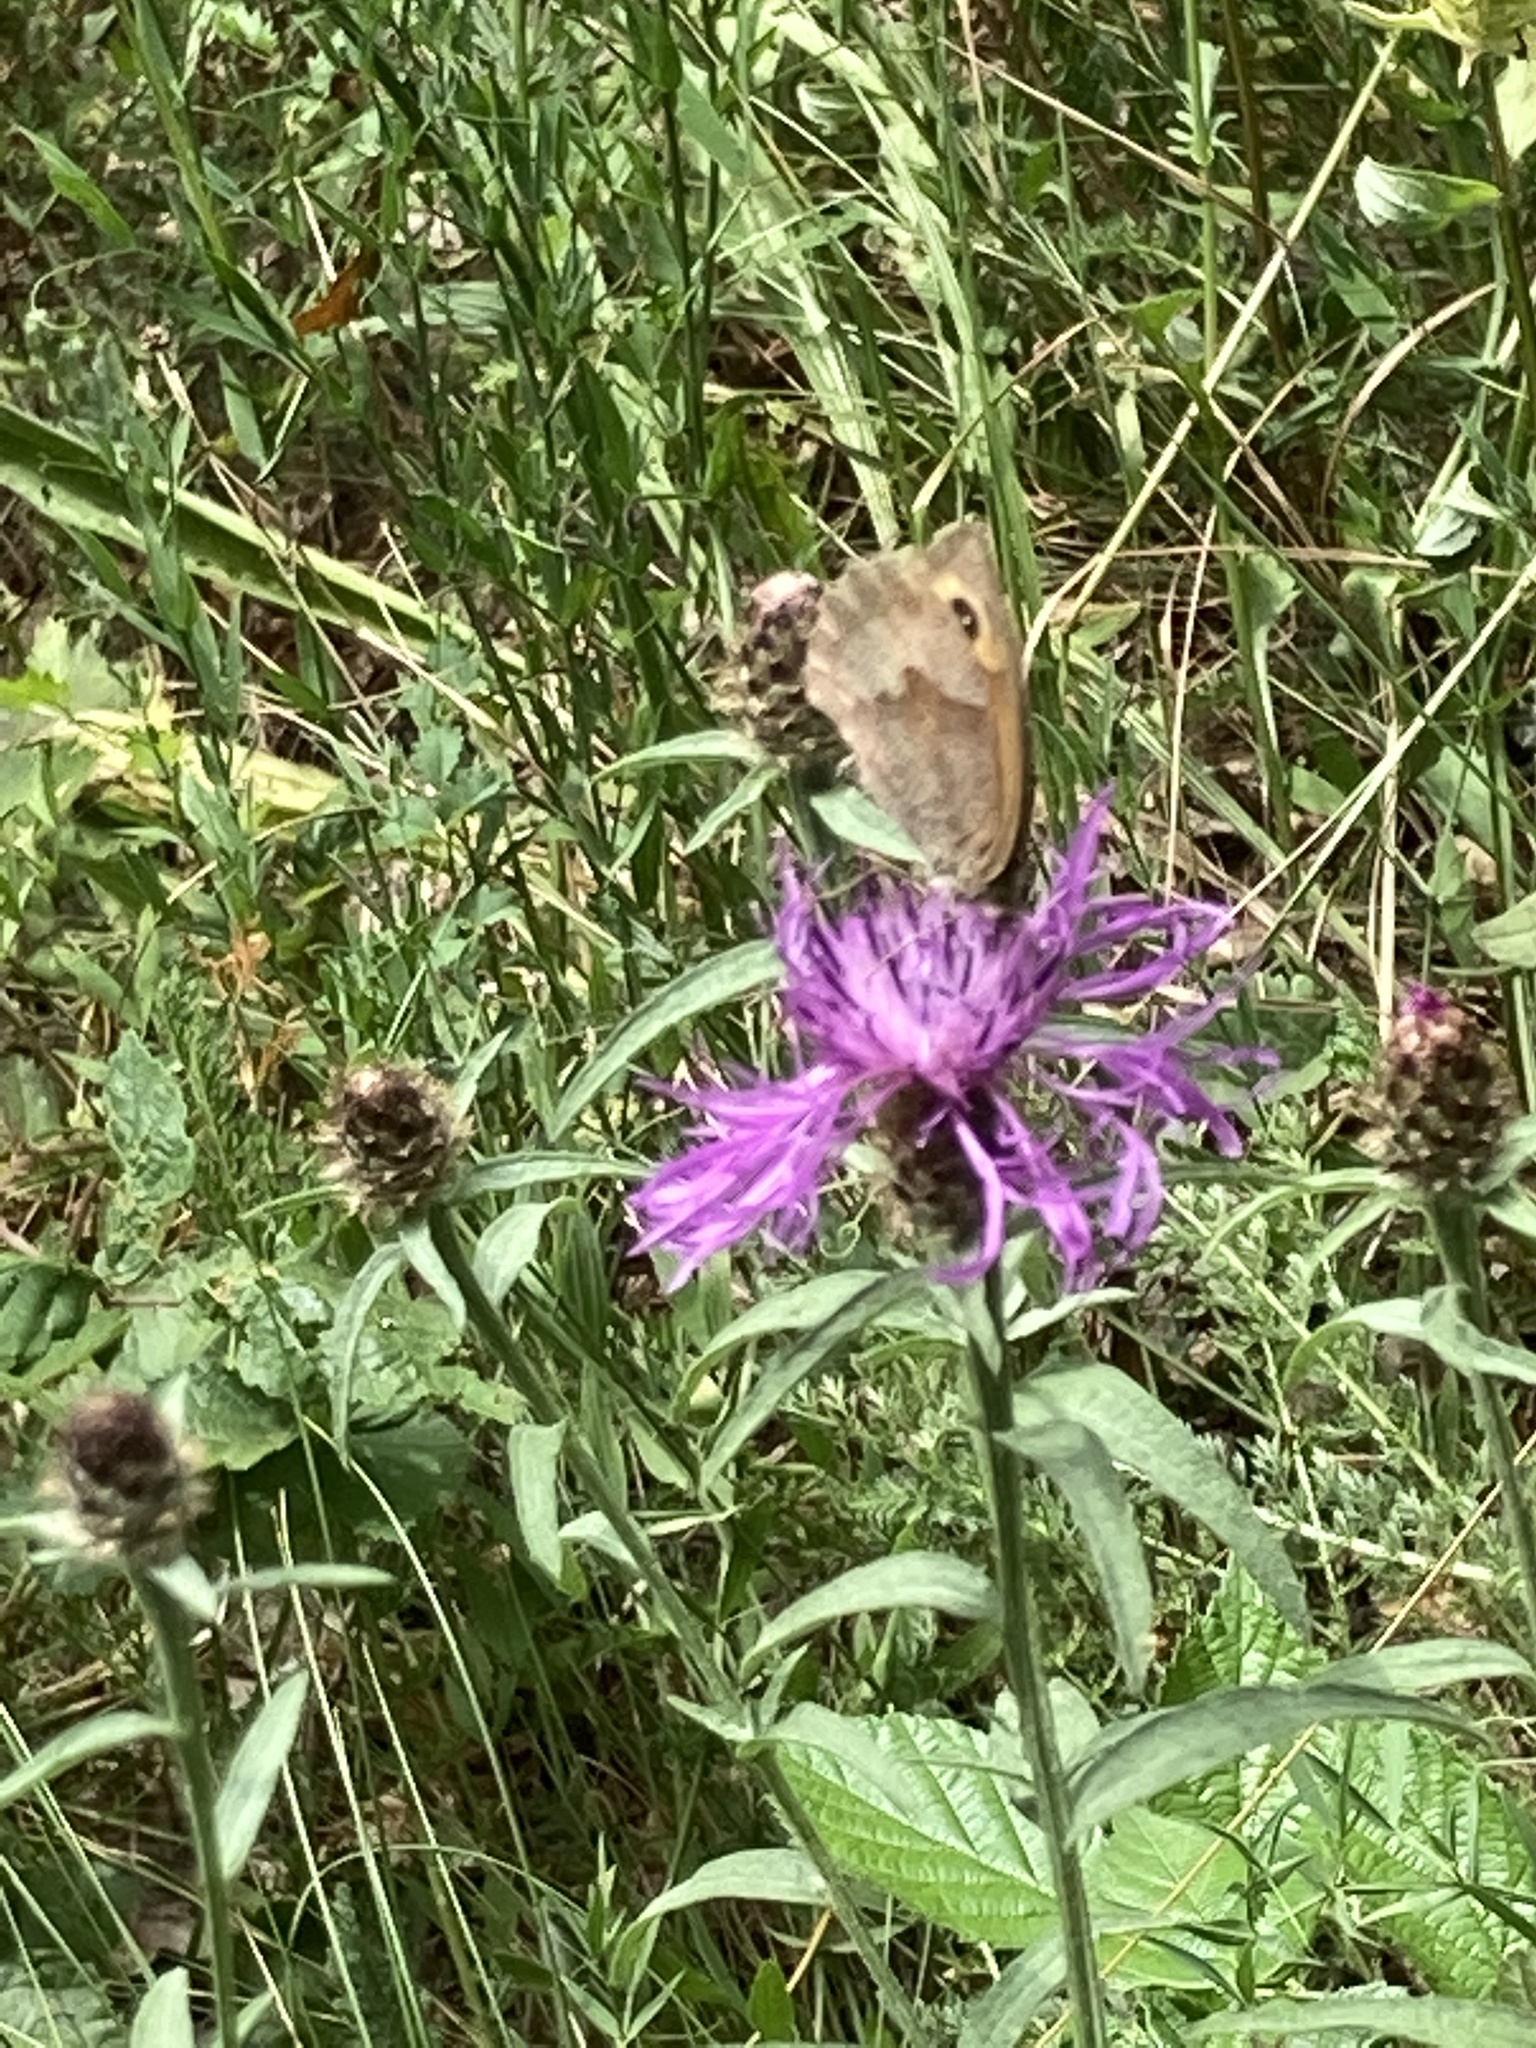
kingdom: Animalia
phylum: Arthropoda
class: Insecta
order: Lepidoptera
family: Nymphalidae
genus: Maniola
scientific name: Maniola jurtina
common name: Meadow brown
